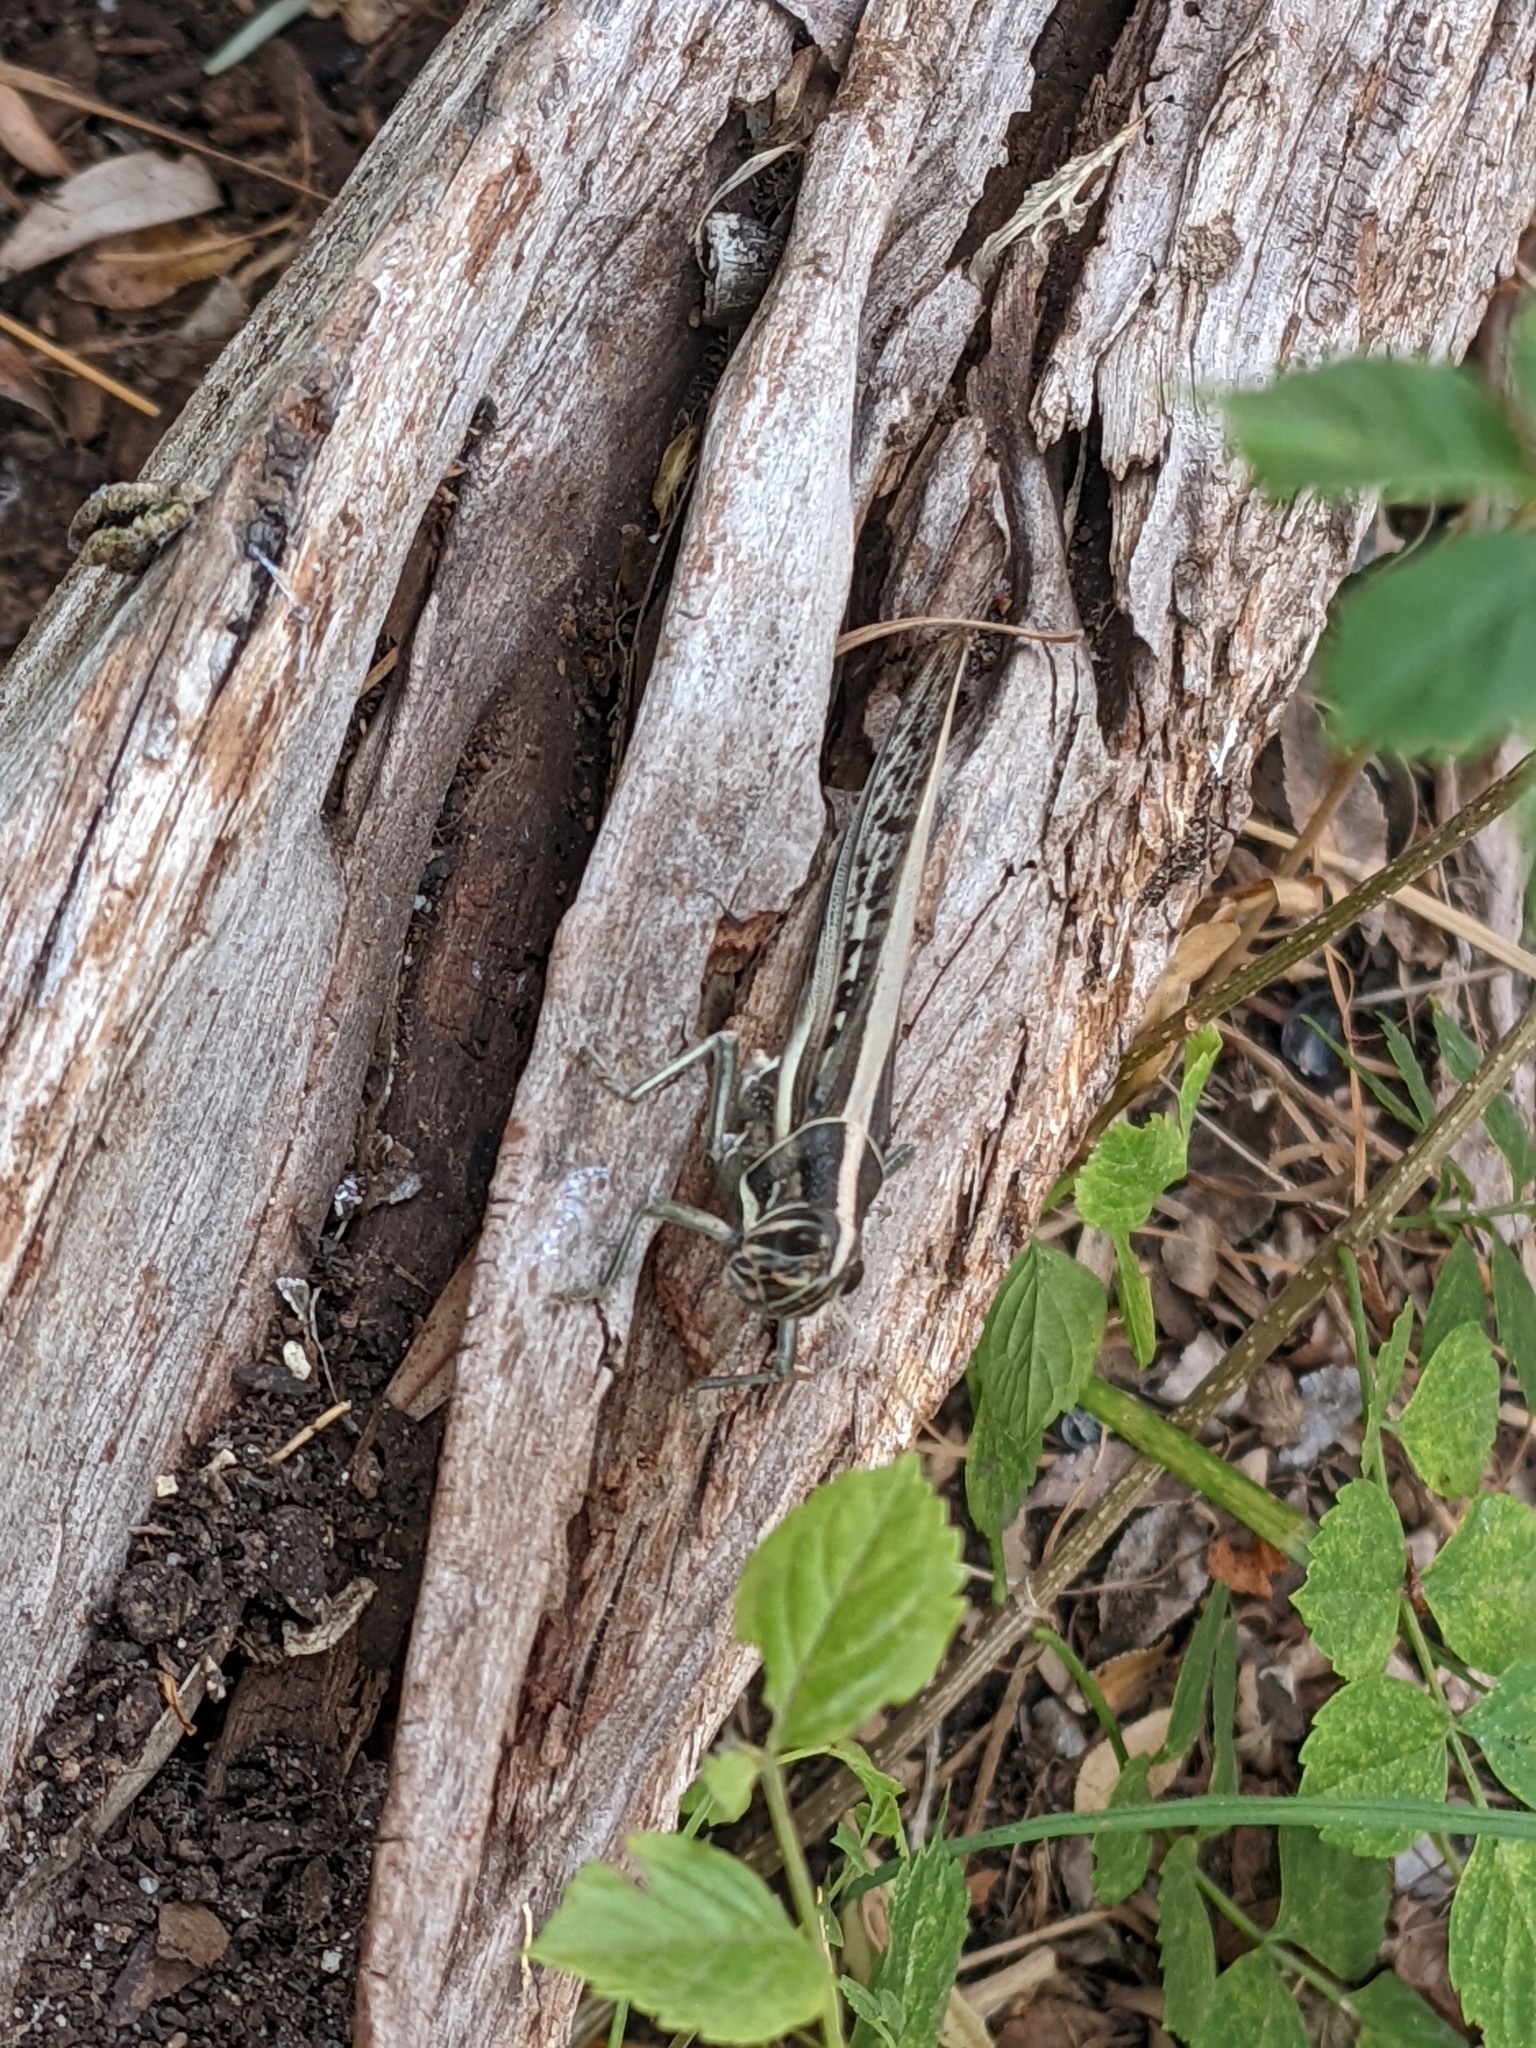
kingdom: Animalia
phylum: Arthropoda
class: Insecta
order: Orthoptera
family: Acrididae
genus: Austracris
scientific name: Austracris guttulosa
